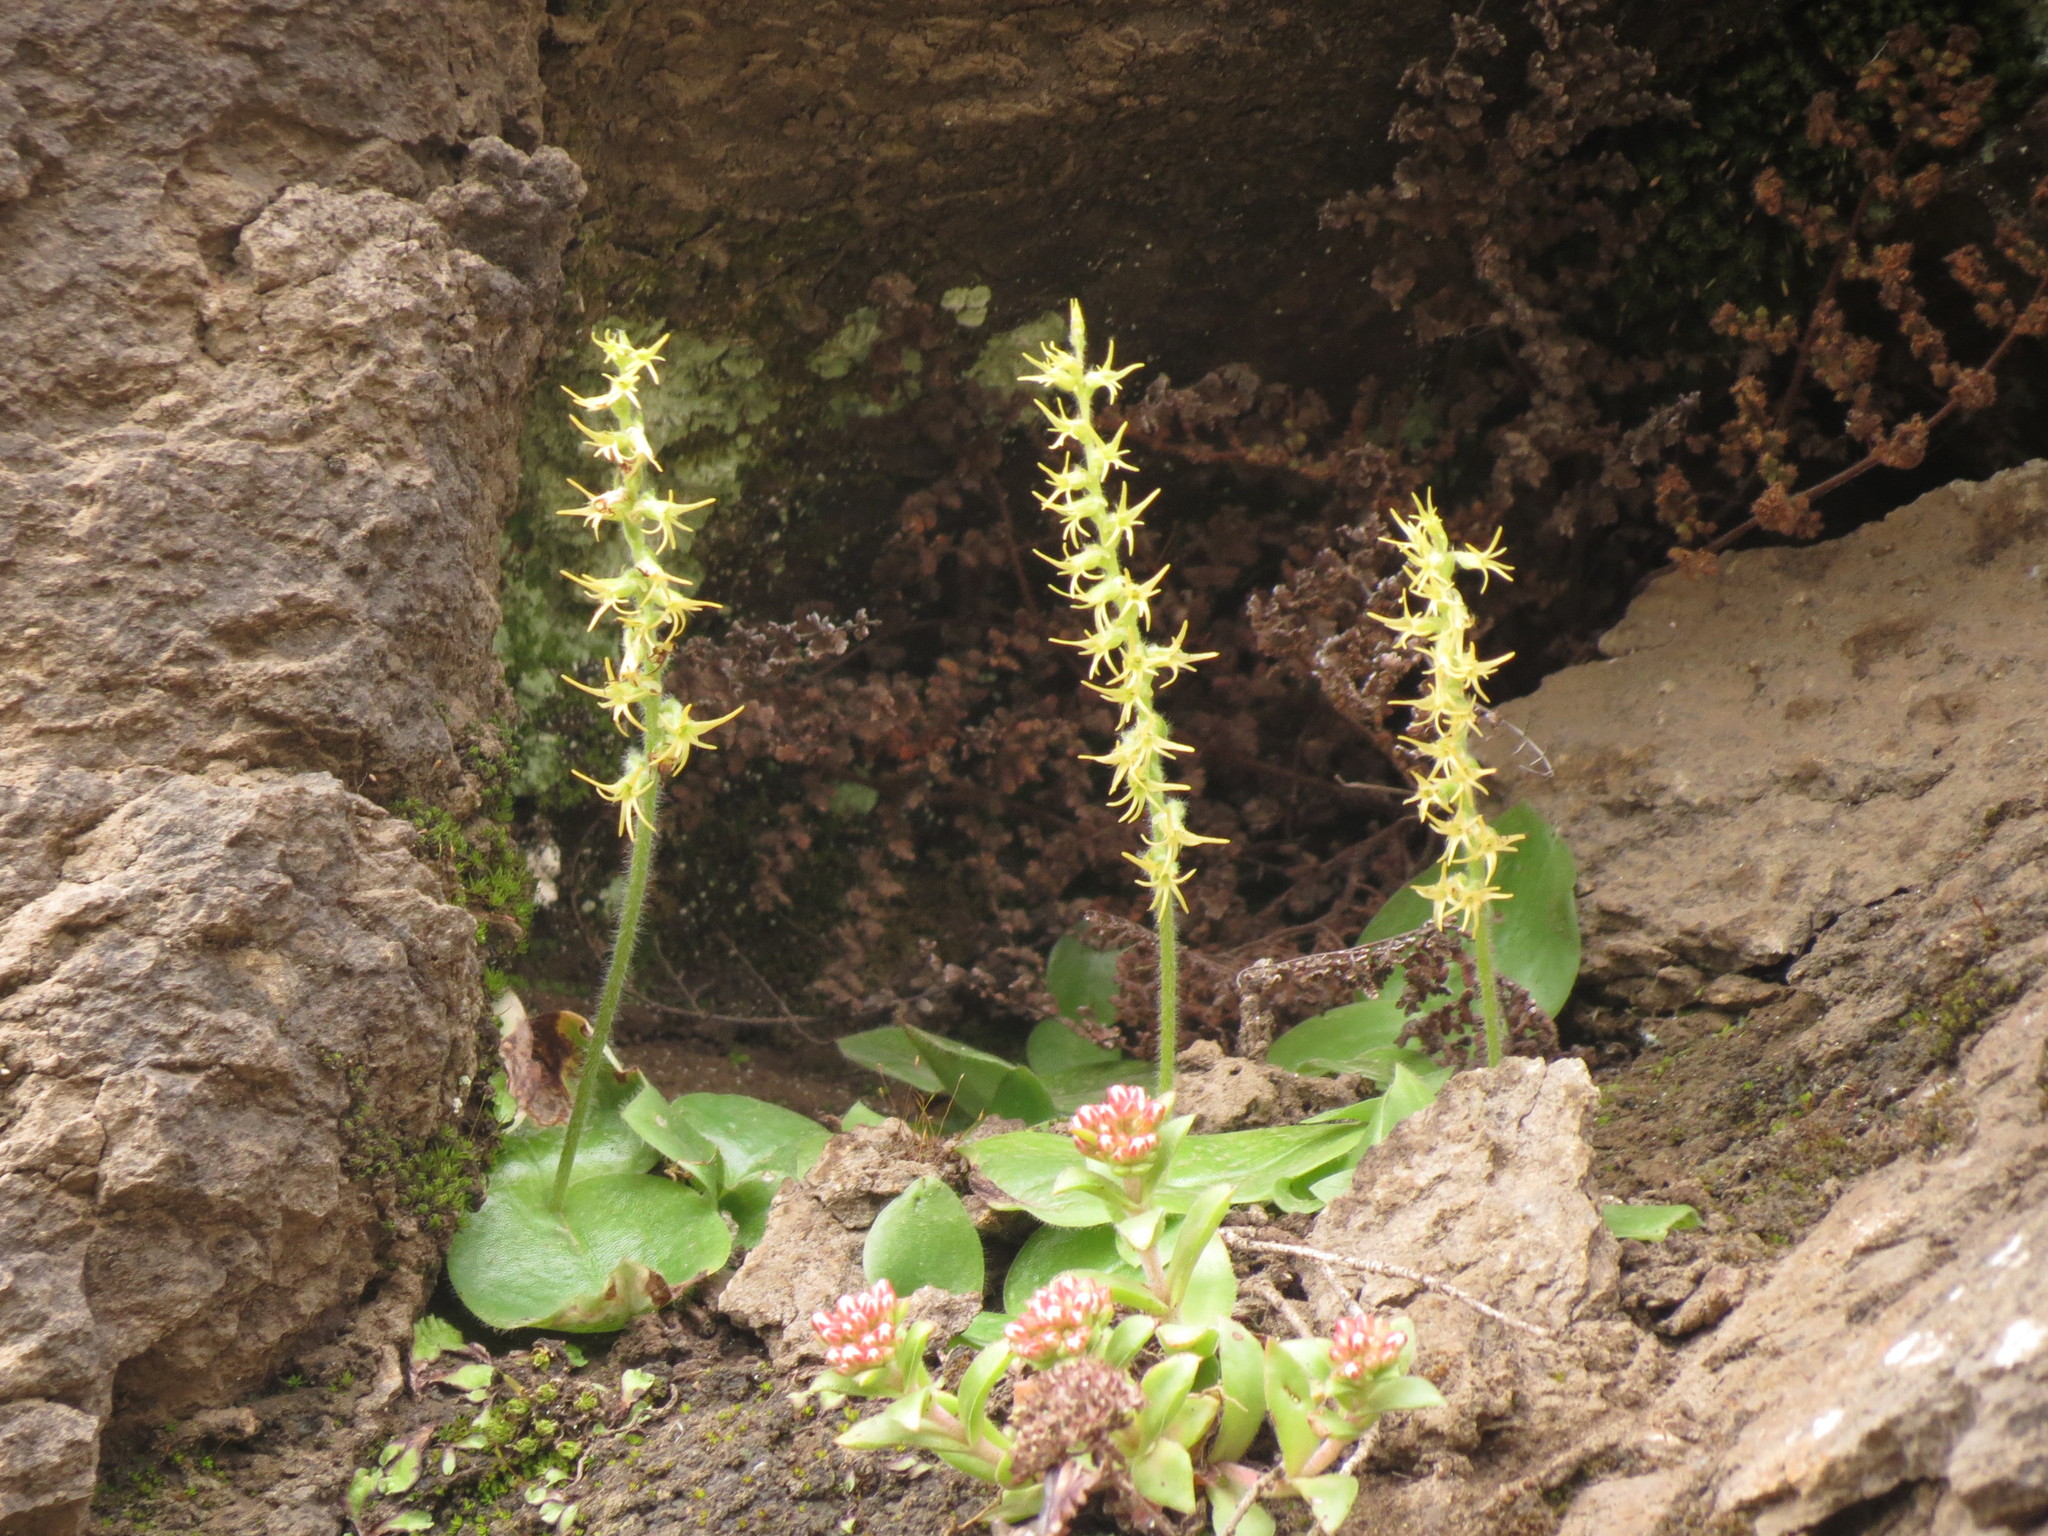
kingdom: Plantae
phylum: Tracheophyta
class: Liliopsida
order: Asparagales
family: Orchidaceae
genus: Holothrix
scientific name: Holothrix incurva
